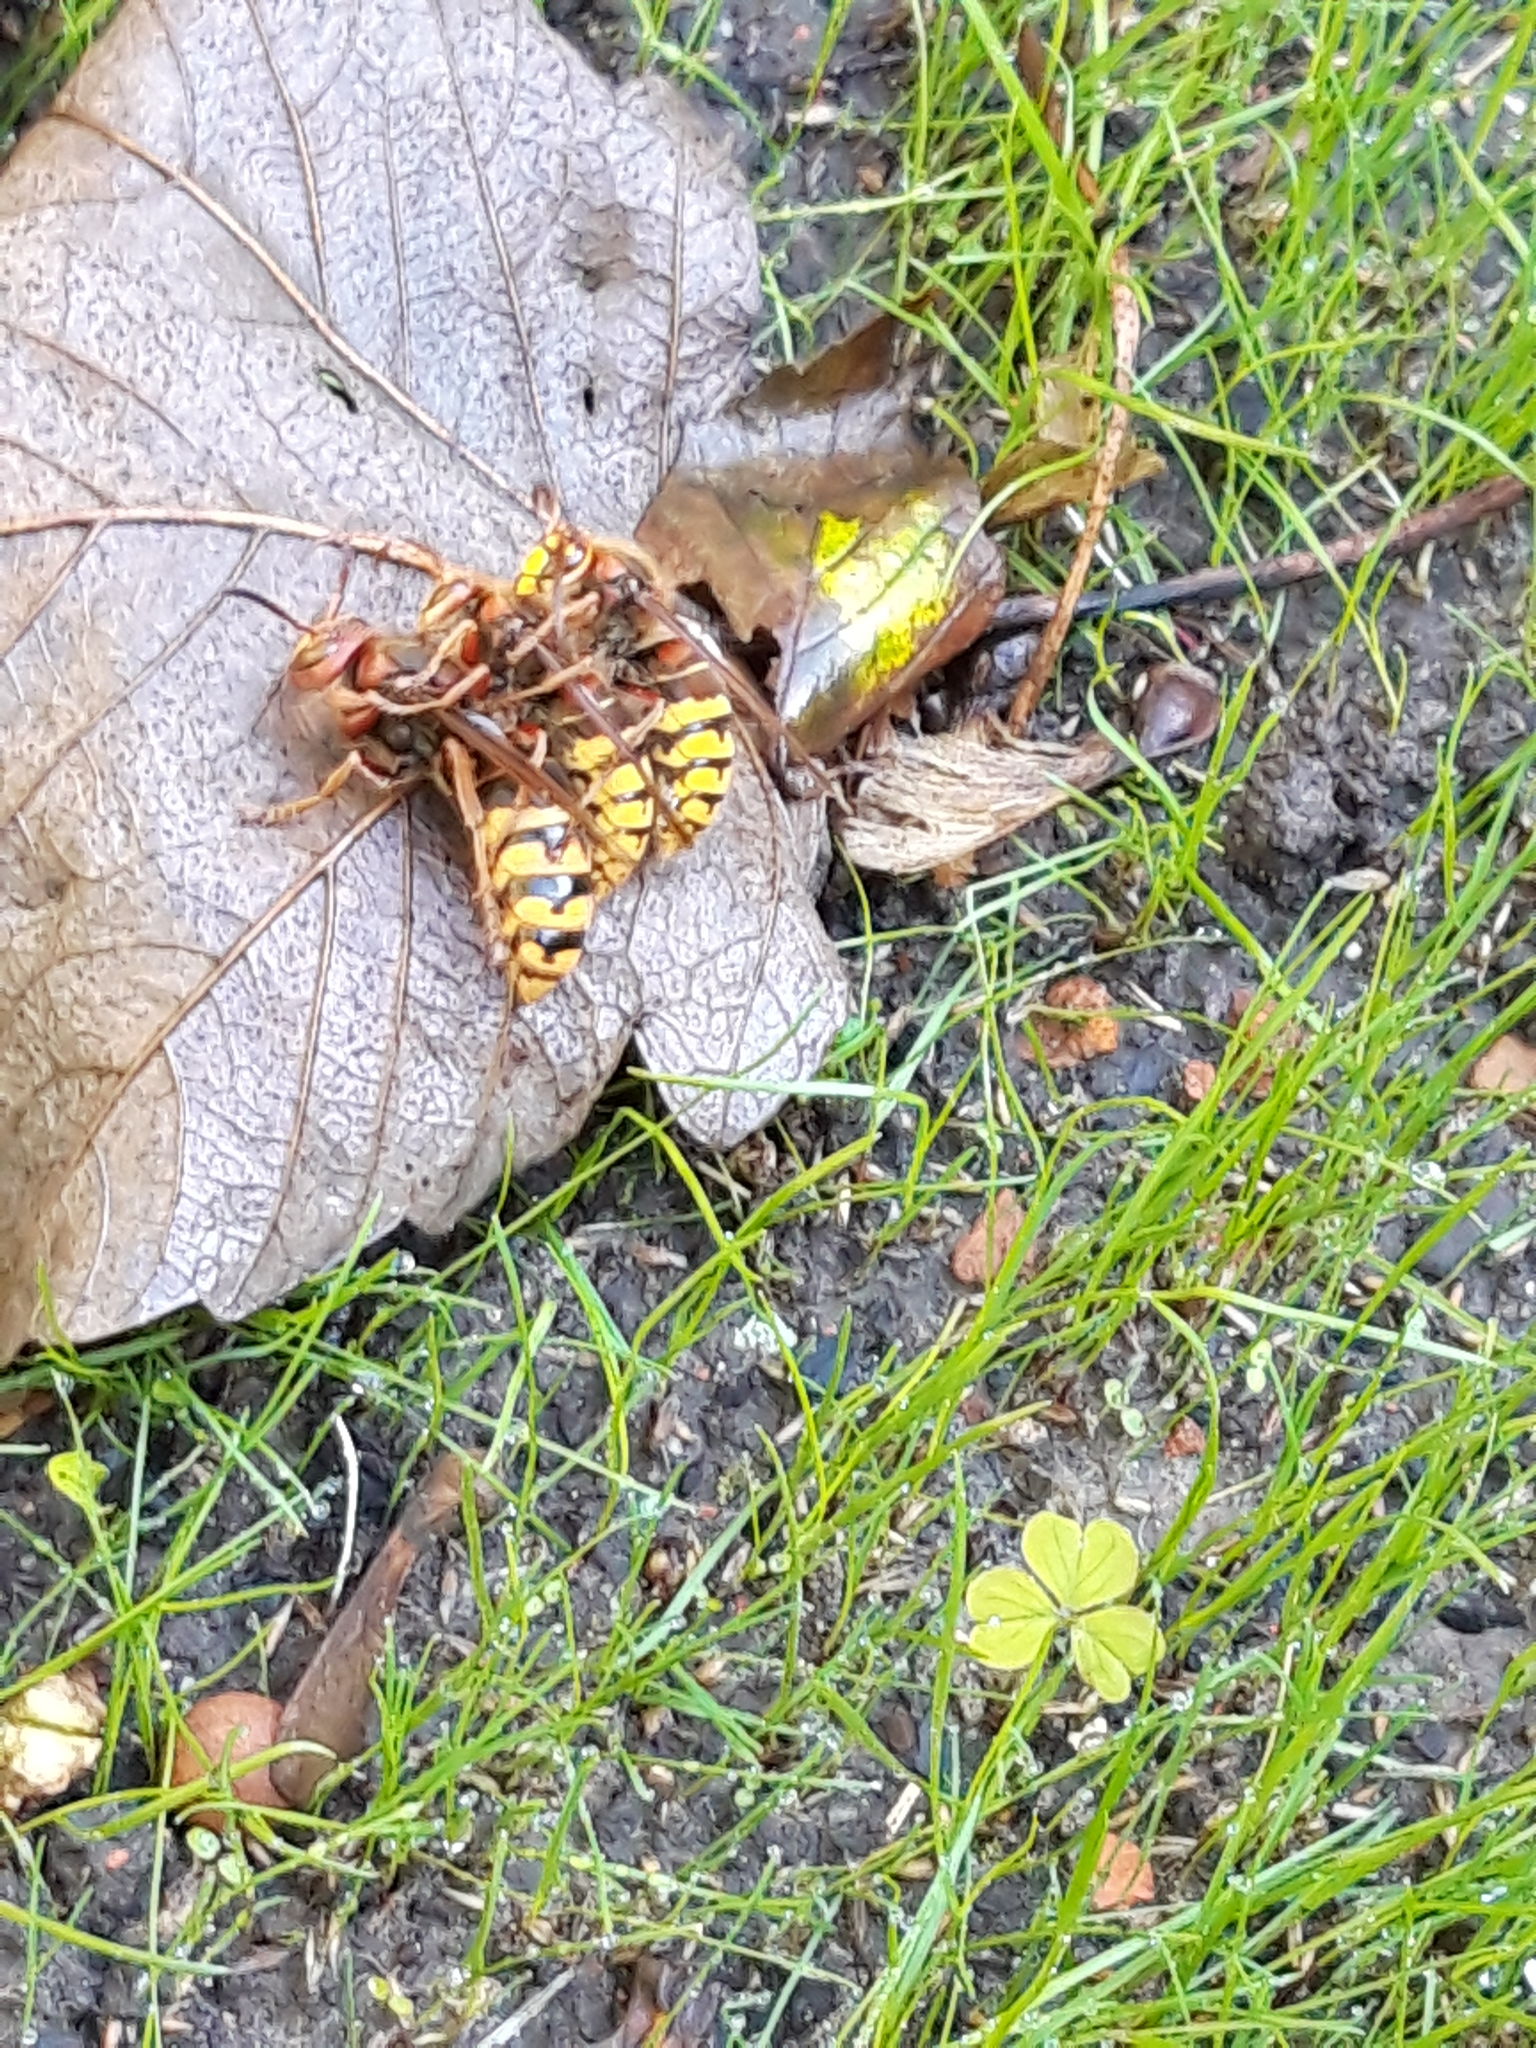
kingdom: Animalia
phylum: Arthropoda
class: Insecta
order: Hymenoptera
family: Vespidae
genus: Vespa
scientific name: Vespa crabro
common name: Hornet
